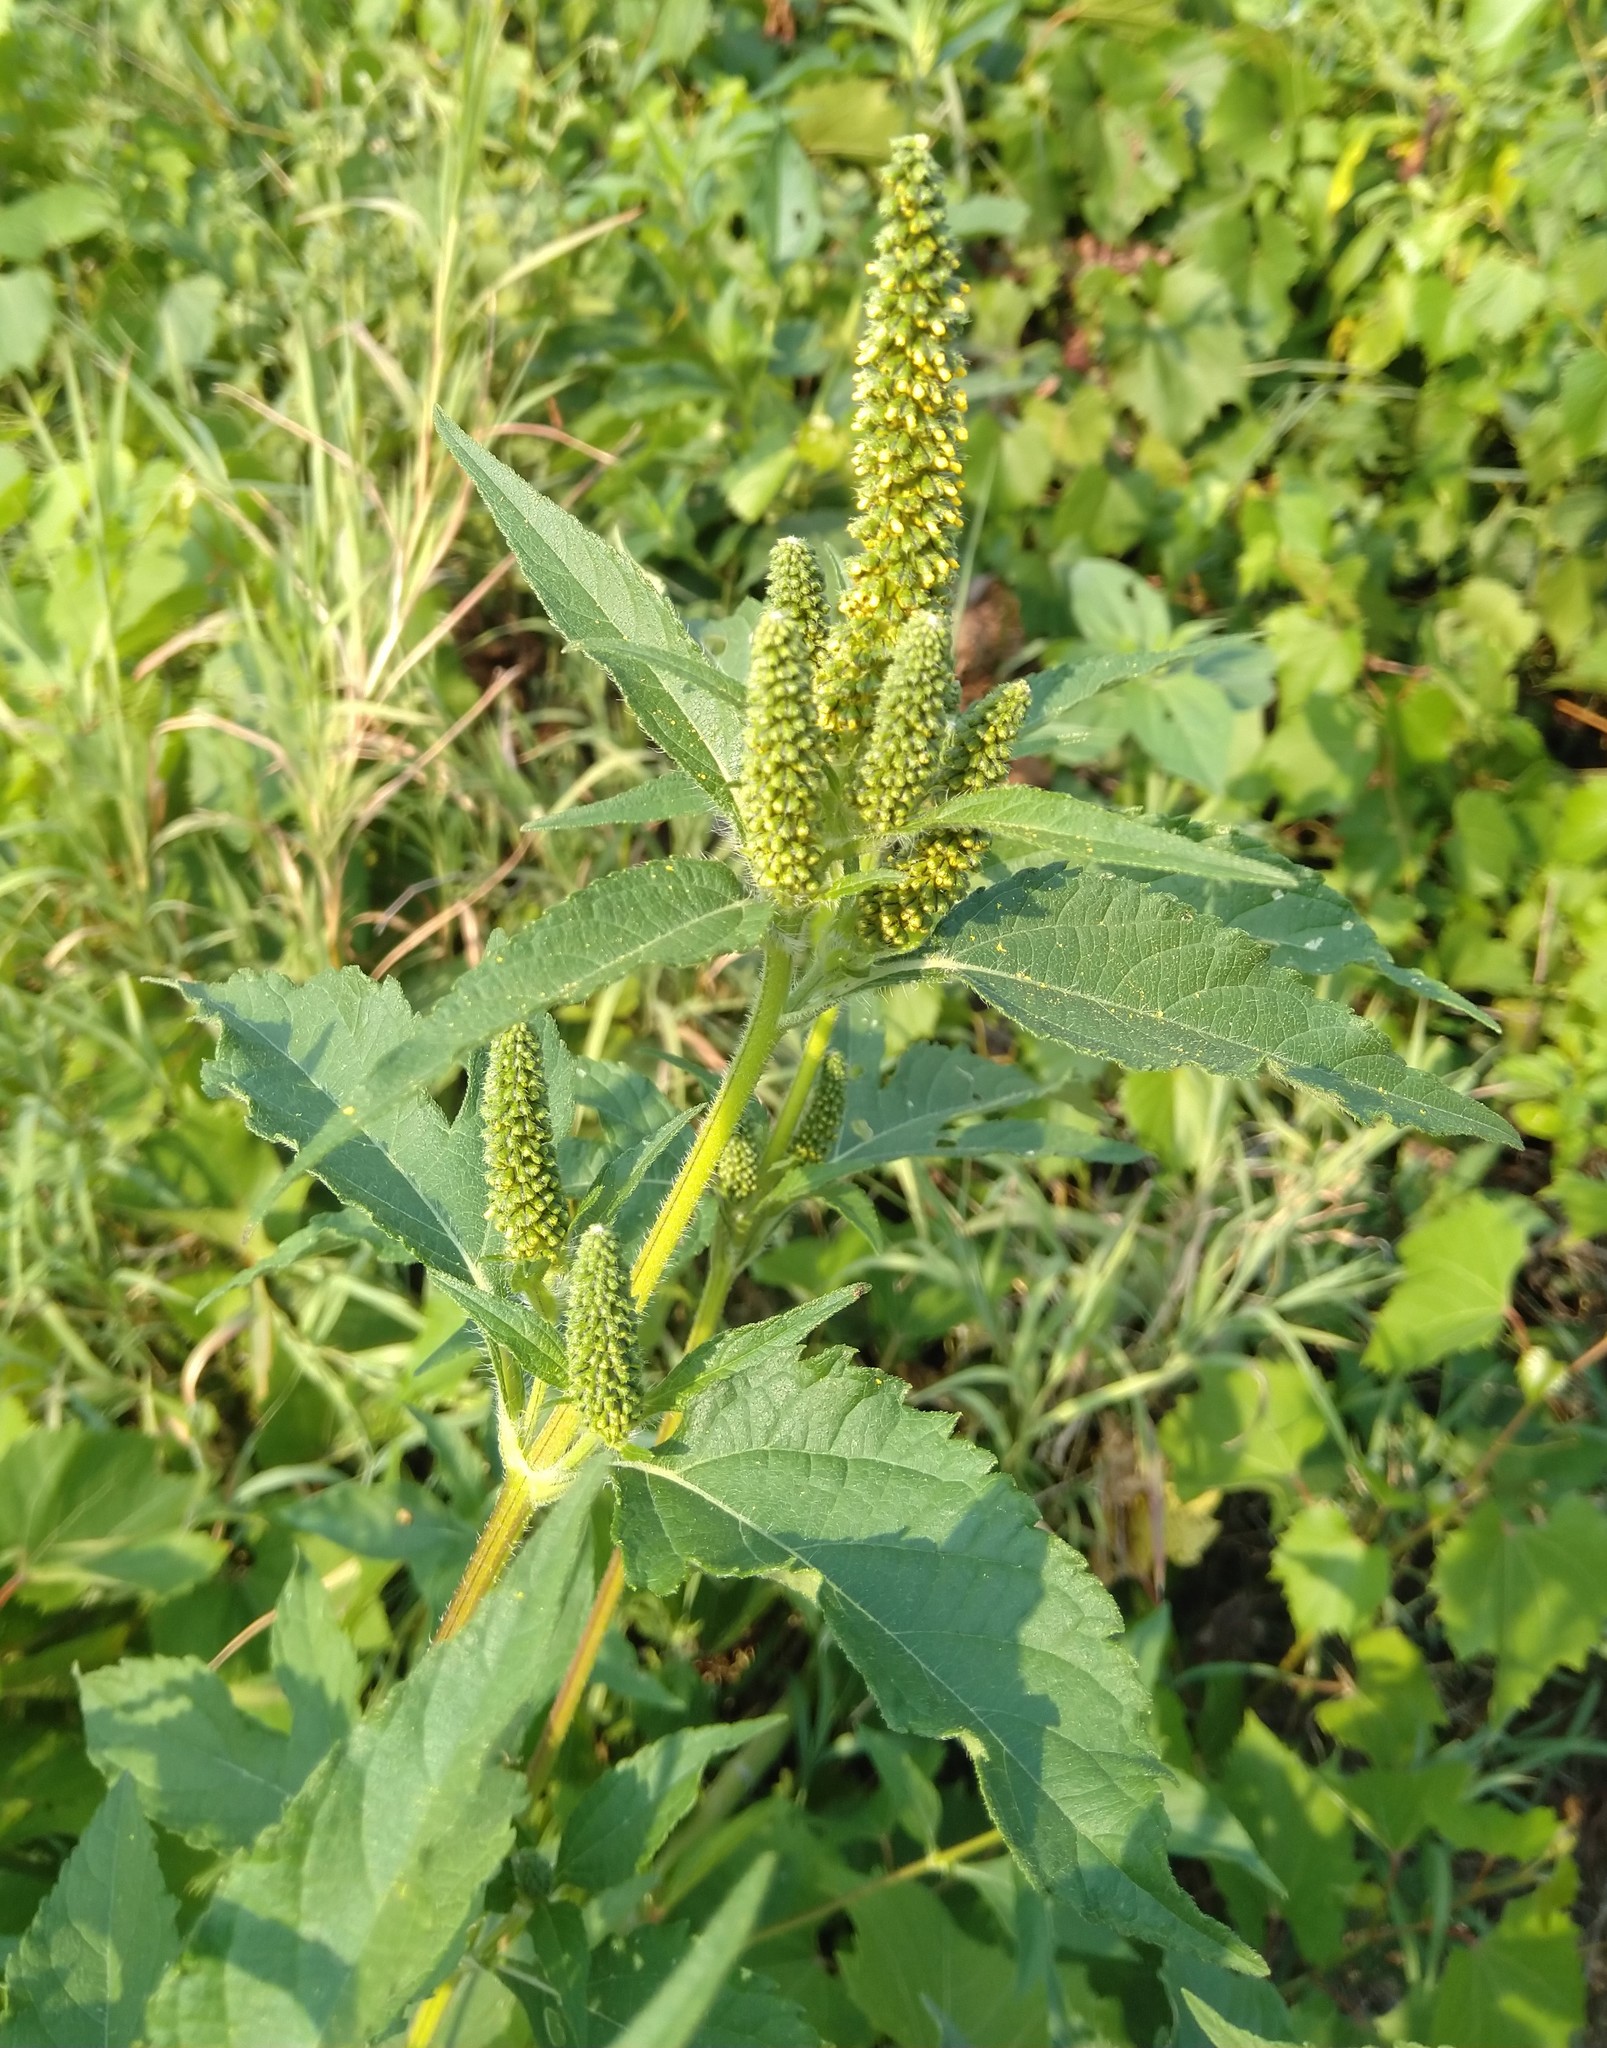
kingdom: Plantae
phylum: Tracheophyta
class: Magnoliopsida
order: Asterales
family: Asteraceae
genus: Ambrosia
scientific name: Ambrosia trifida
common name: Giant ragweed
